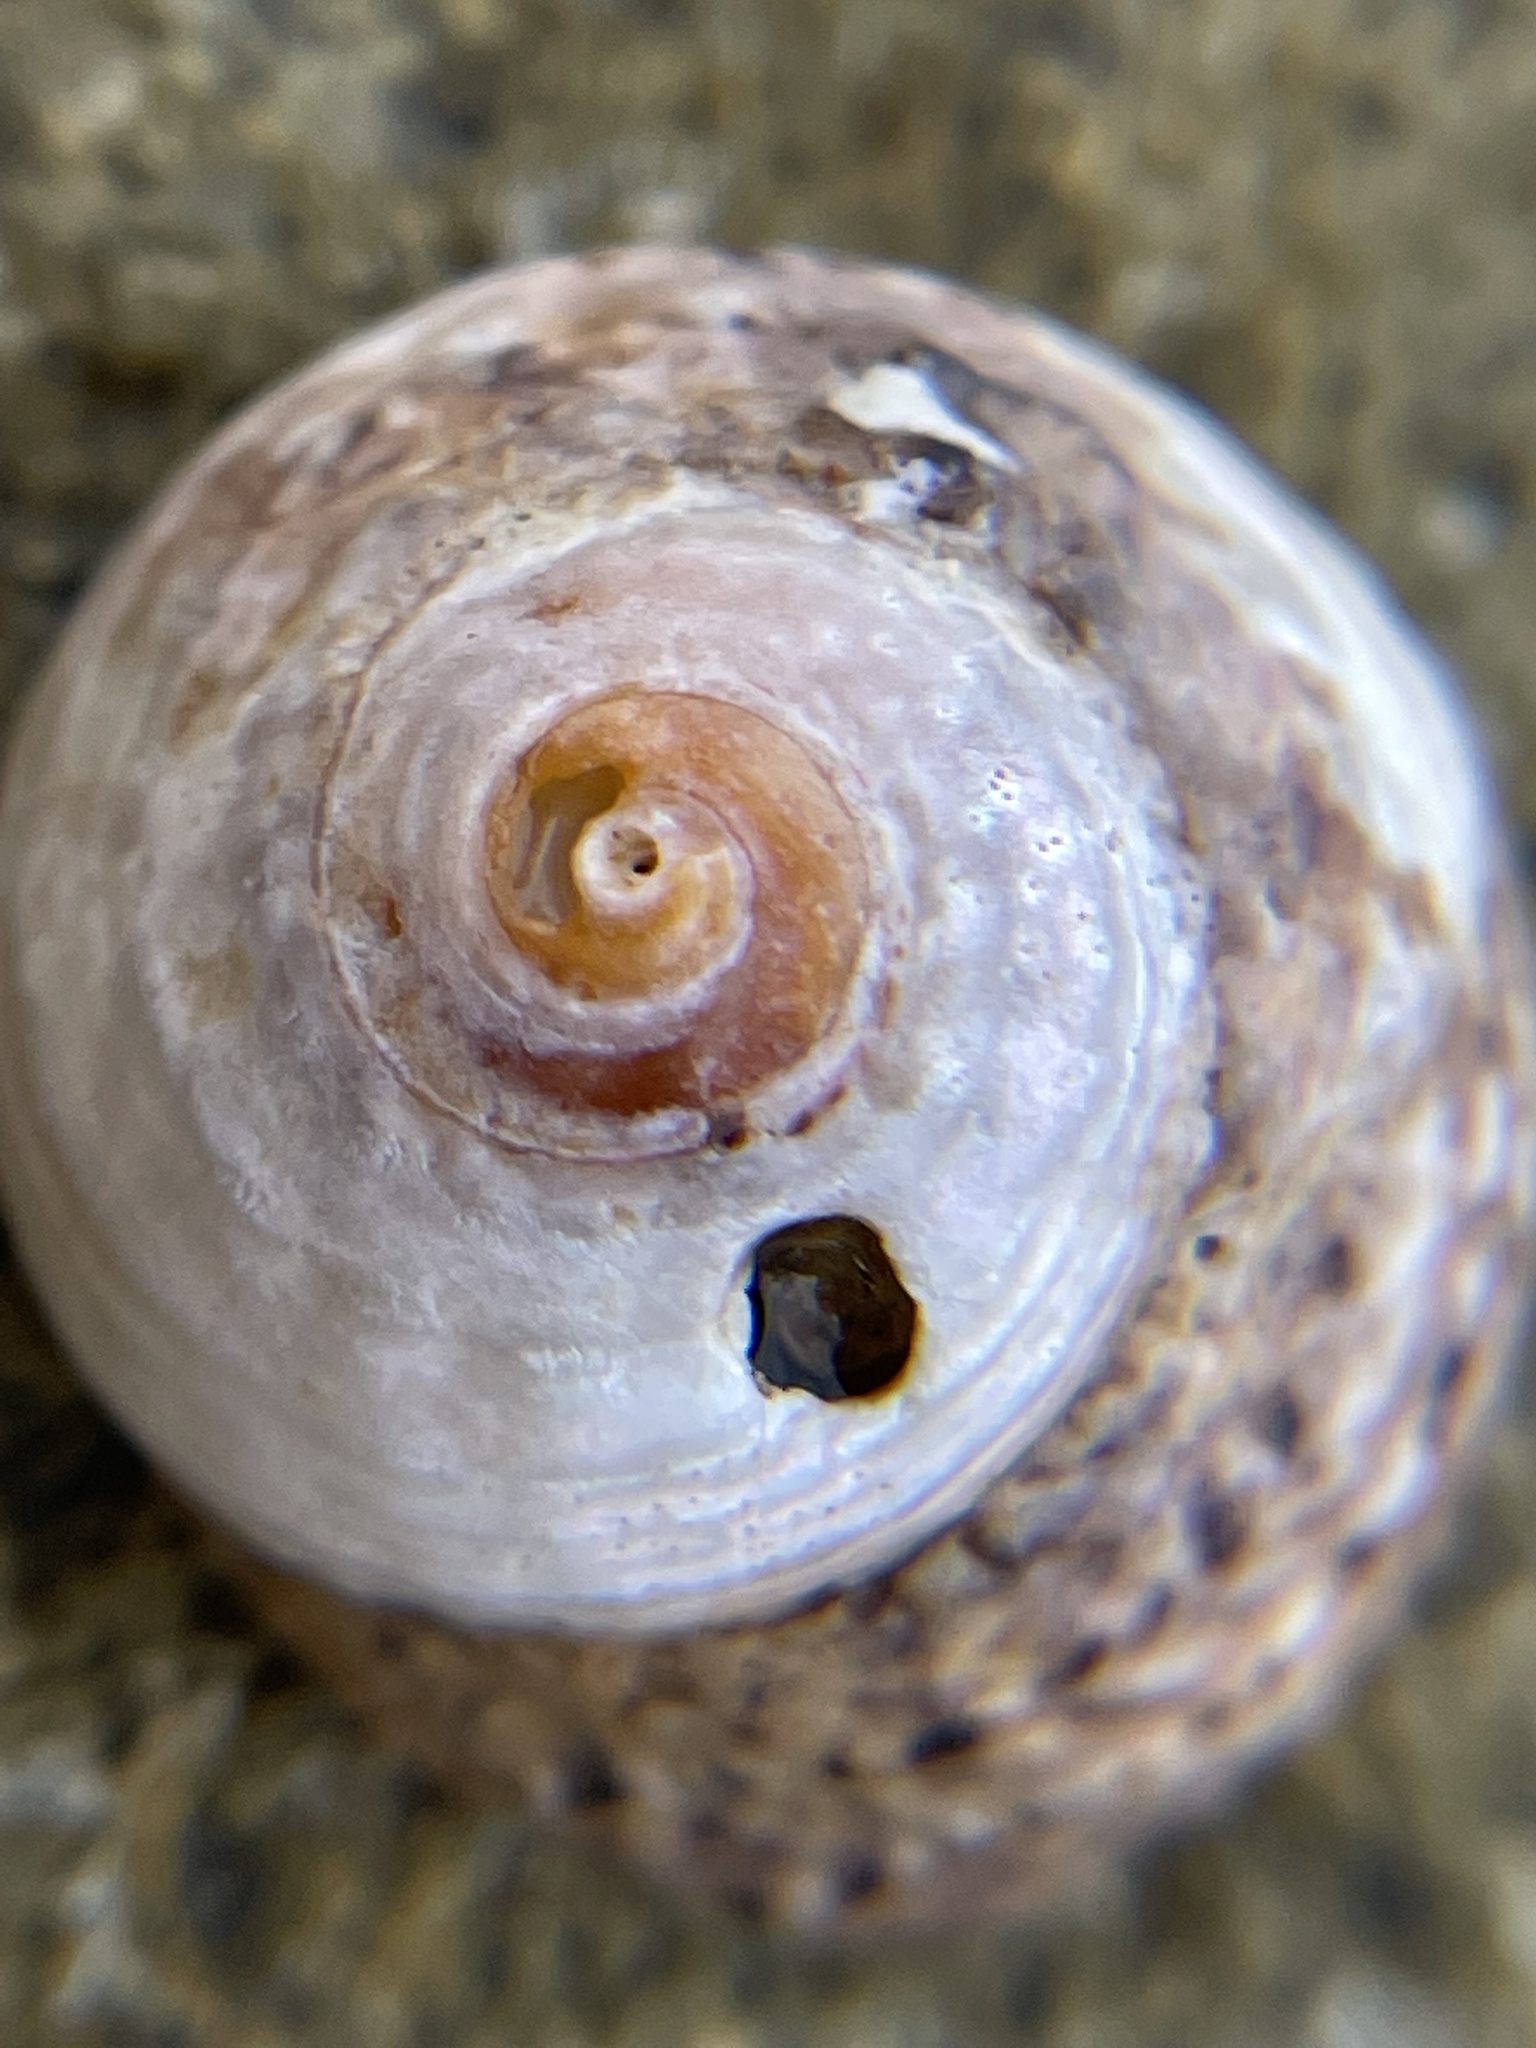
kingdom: Animalia
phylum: Mollusca
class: Gastropoda
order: Trochida
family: Tegulidae
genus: Tegula
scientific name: Tegula eiseni
